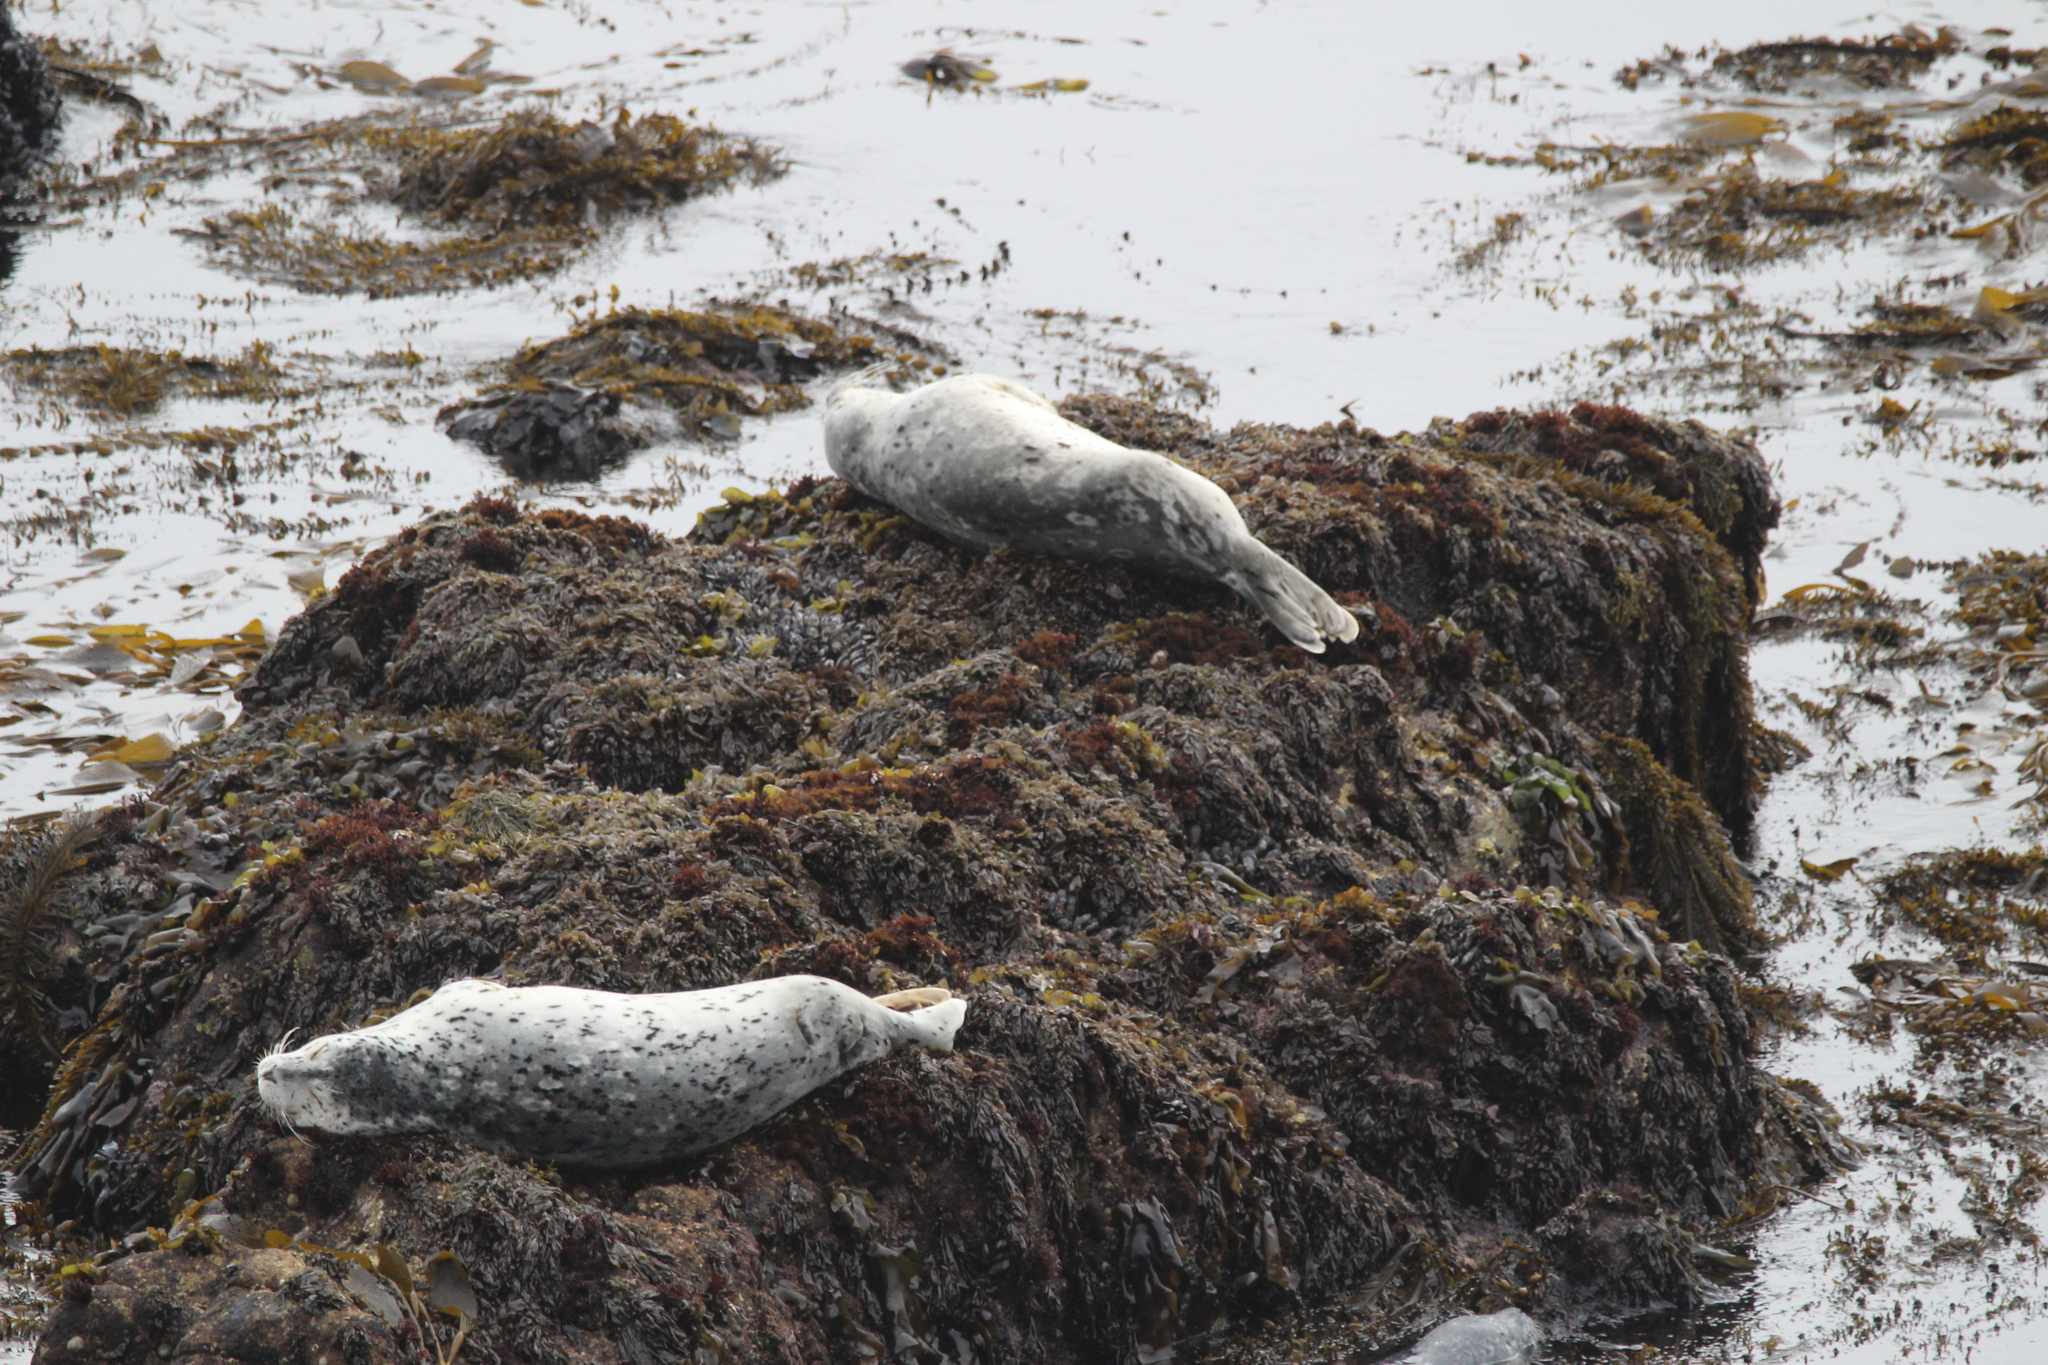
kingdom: Animalia
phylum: Chordata
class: Mammalia
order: Carnivora
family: Phocidae
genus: Phoca
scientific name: Phoca vitulina
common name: Harbor seal
